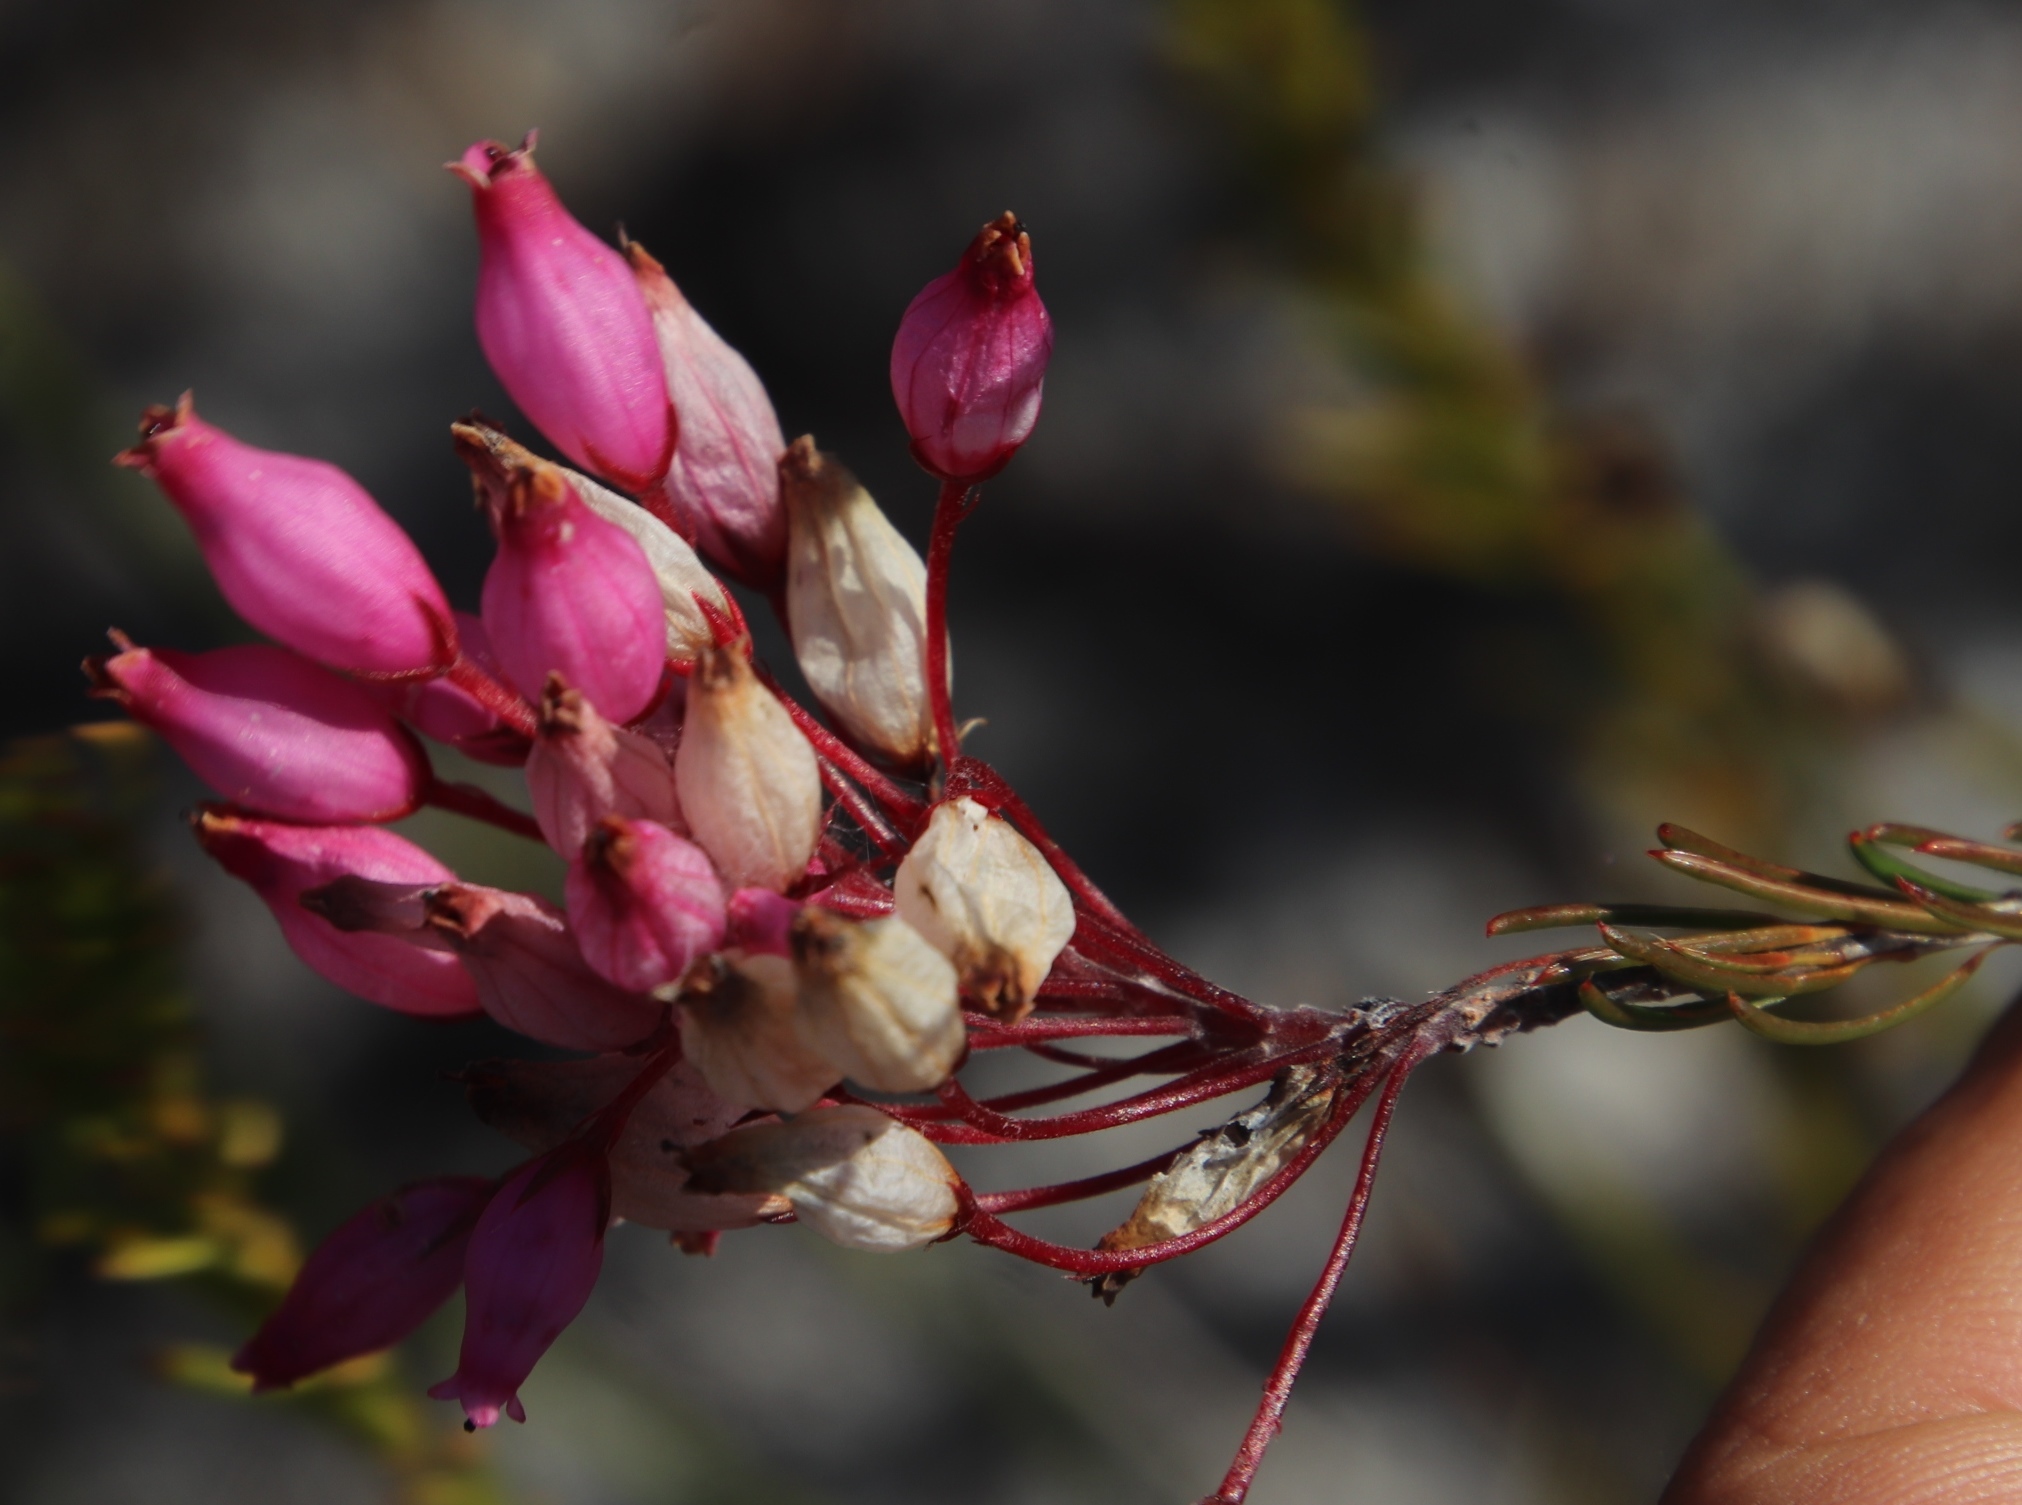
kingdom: Plantae
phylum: Tracheophyta
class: Magnoliopsida
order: Ericales
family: Ericaceae
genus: Erica
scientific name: Erica inflata
